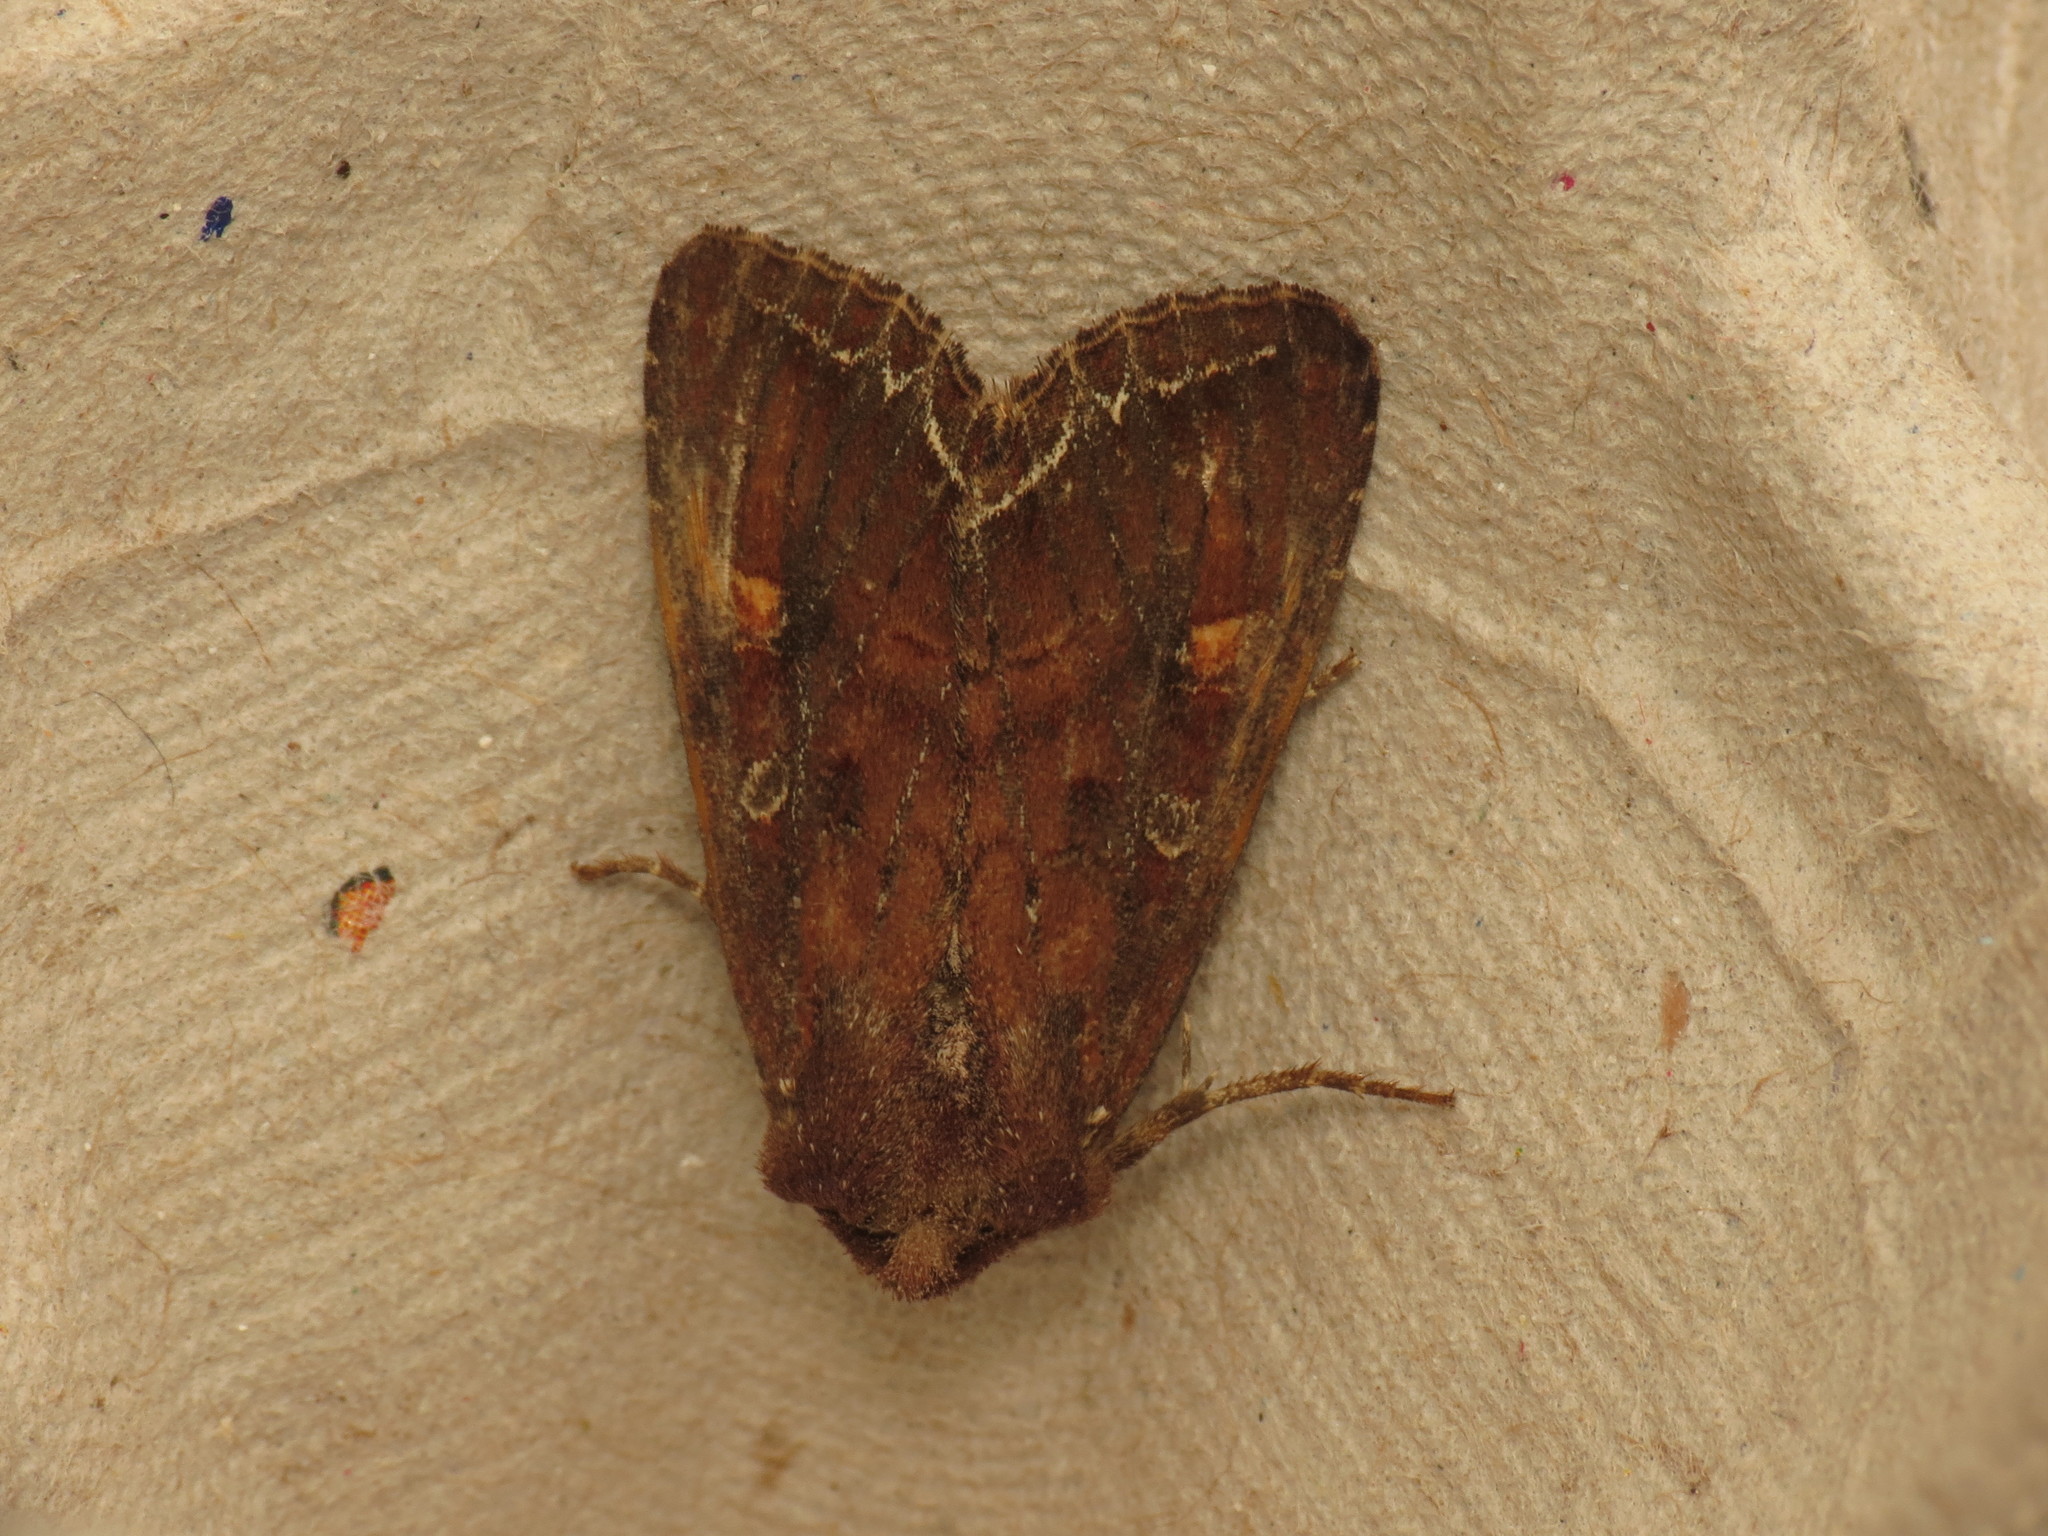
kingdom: Animalia
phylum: Arthropoda
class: Insecta
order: Lepidoptera
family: Noctuidae
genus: Lacanobia
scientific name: Lacanobia oleracea
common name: Bright-line brown-eye
